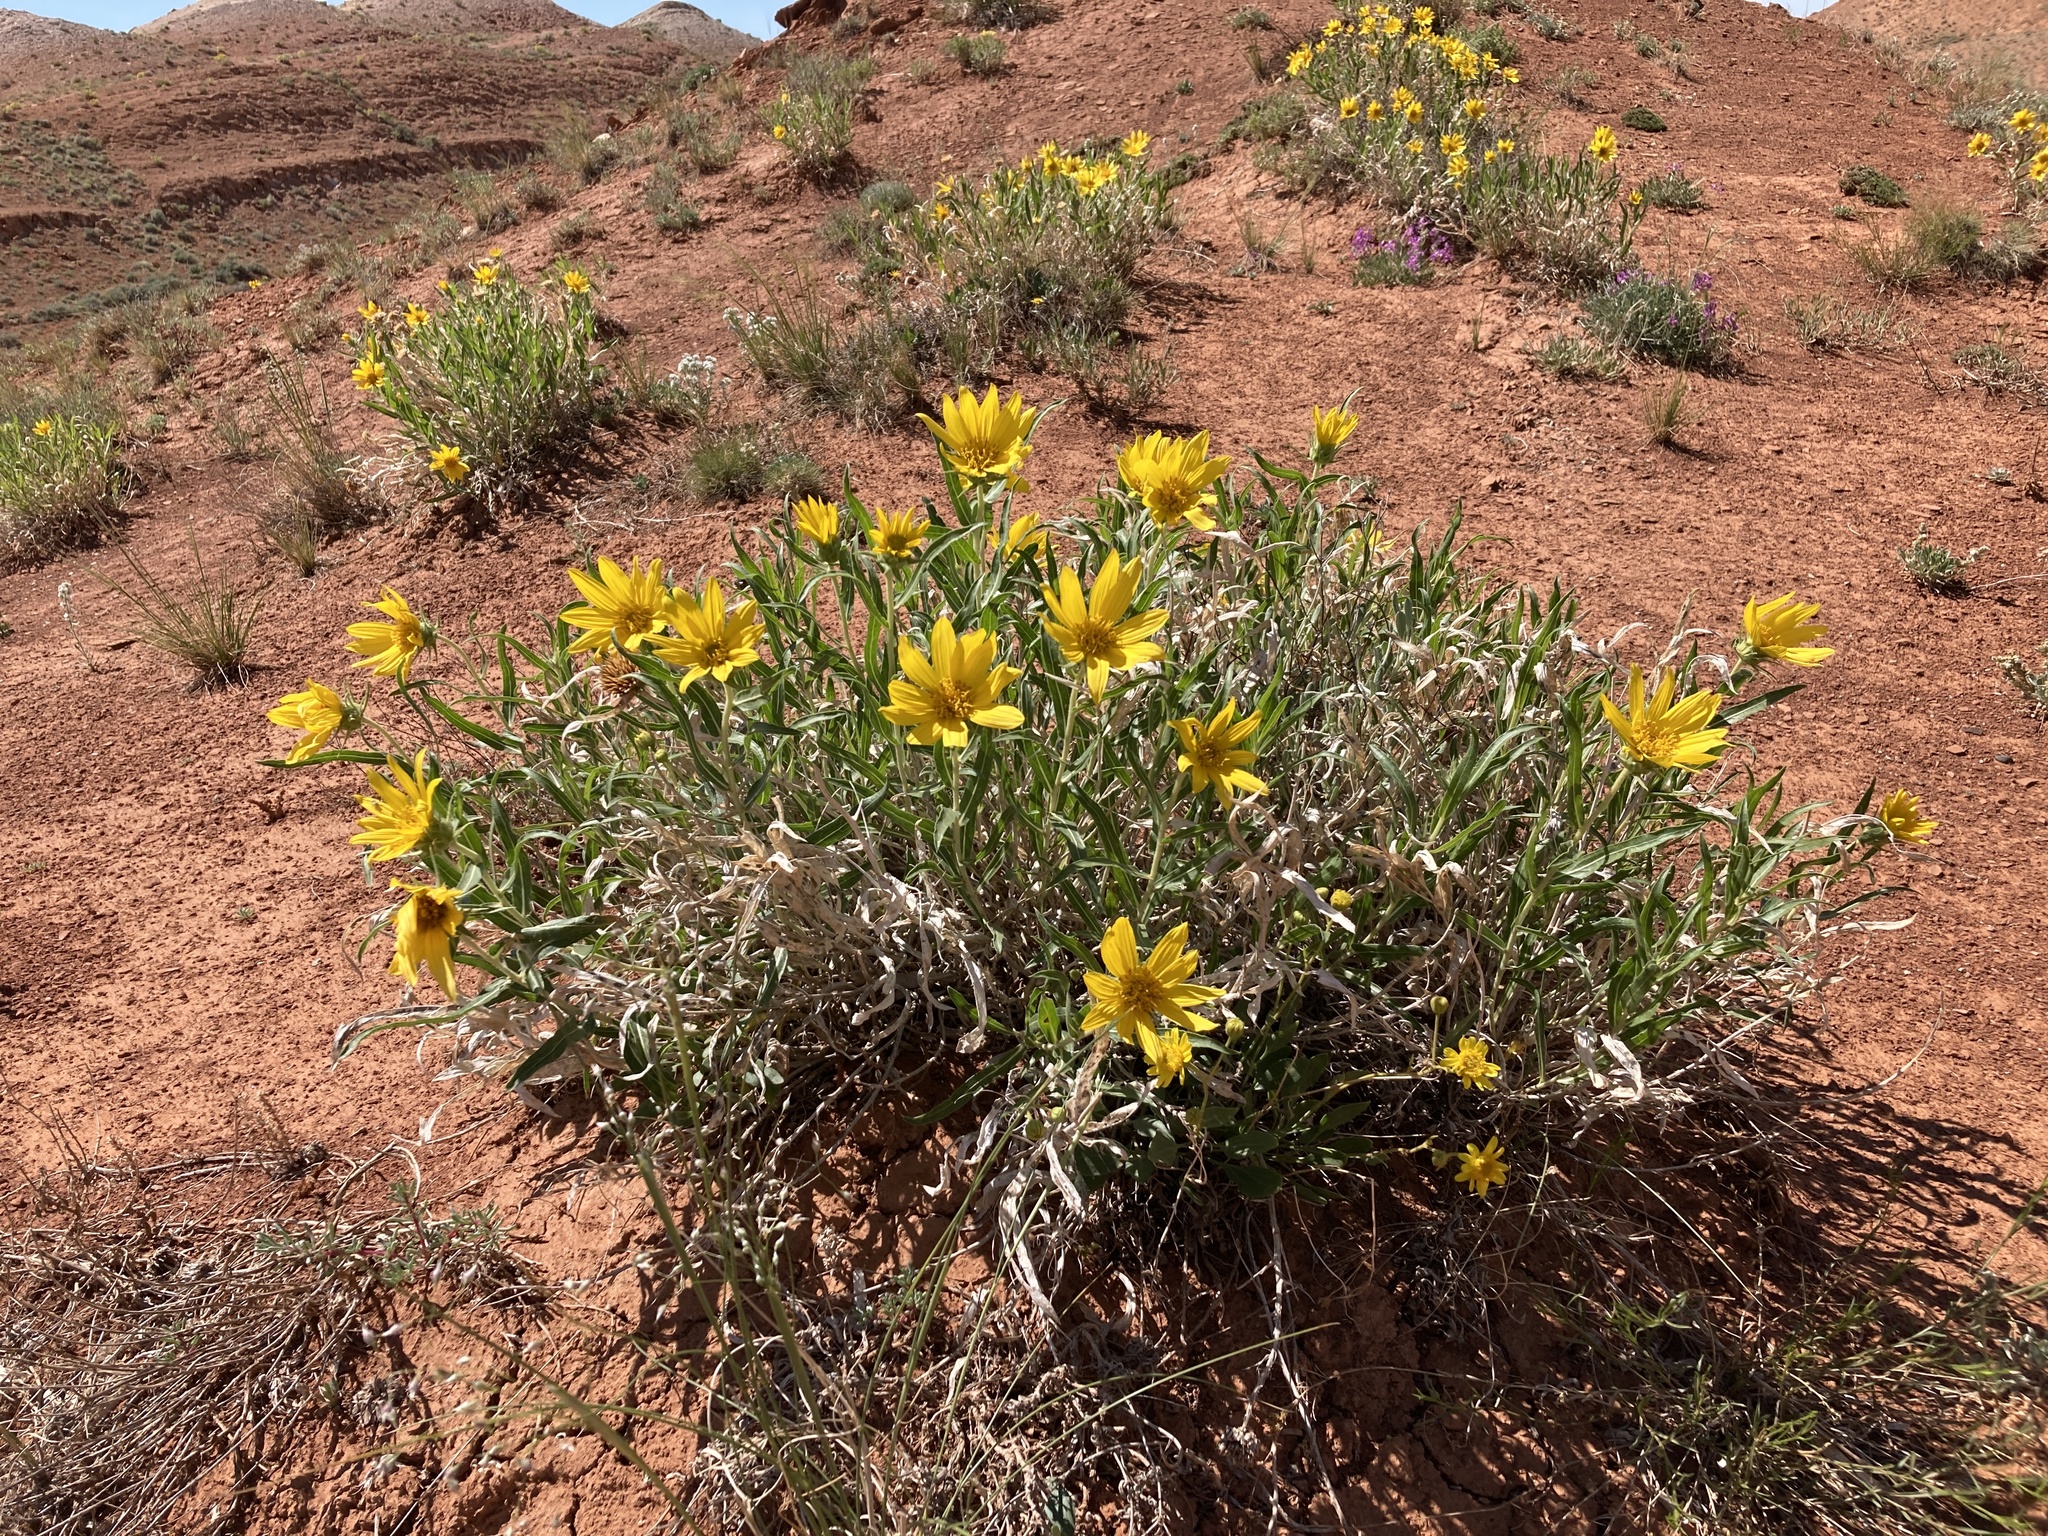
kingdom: Plantae
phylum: Tracheophyta
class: Magnoliopsida
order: Asterales
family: Asteraceae
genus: Scabrethia
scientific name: Scabrethia scabra
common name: Rough mules's-ears
